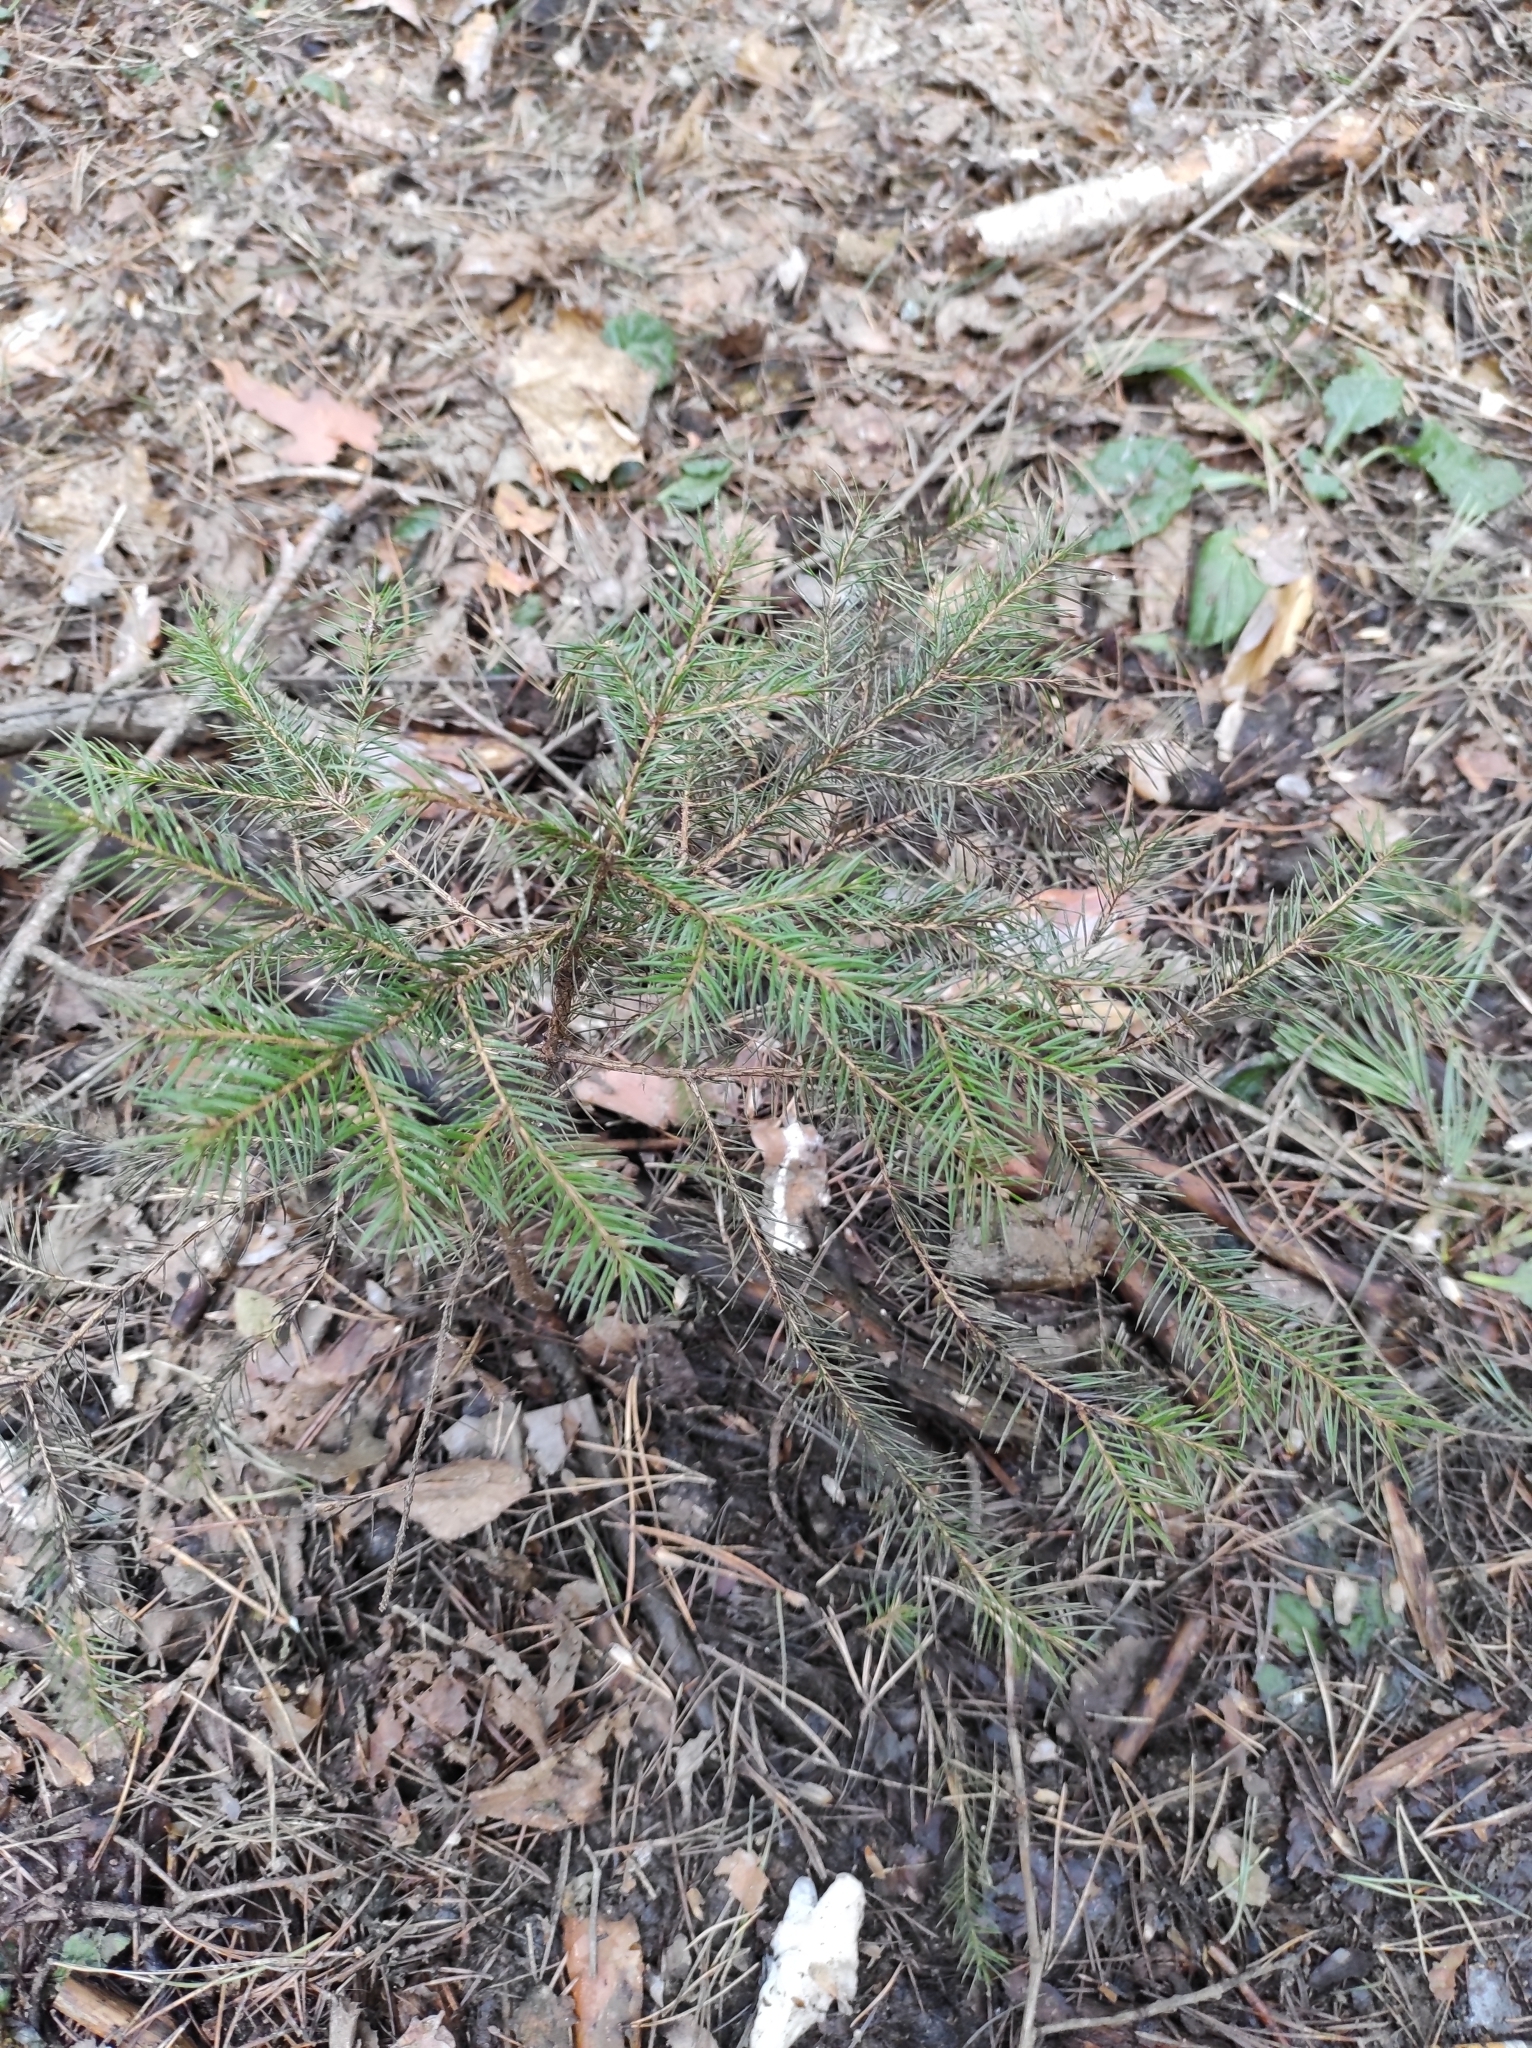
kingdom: Plantae
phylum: Tracheophyta
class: Pinopsida
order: Pinales
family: Pinaceae
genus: Picea
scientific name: Picea abies
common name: Norway spruce
